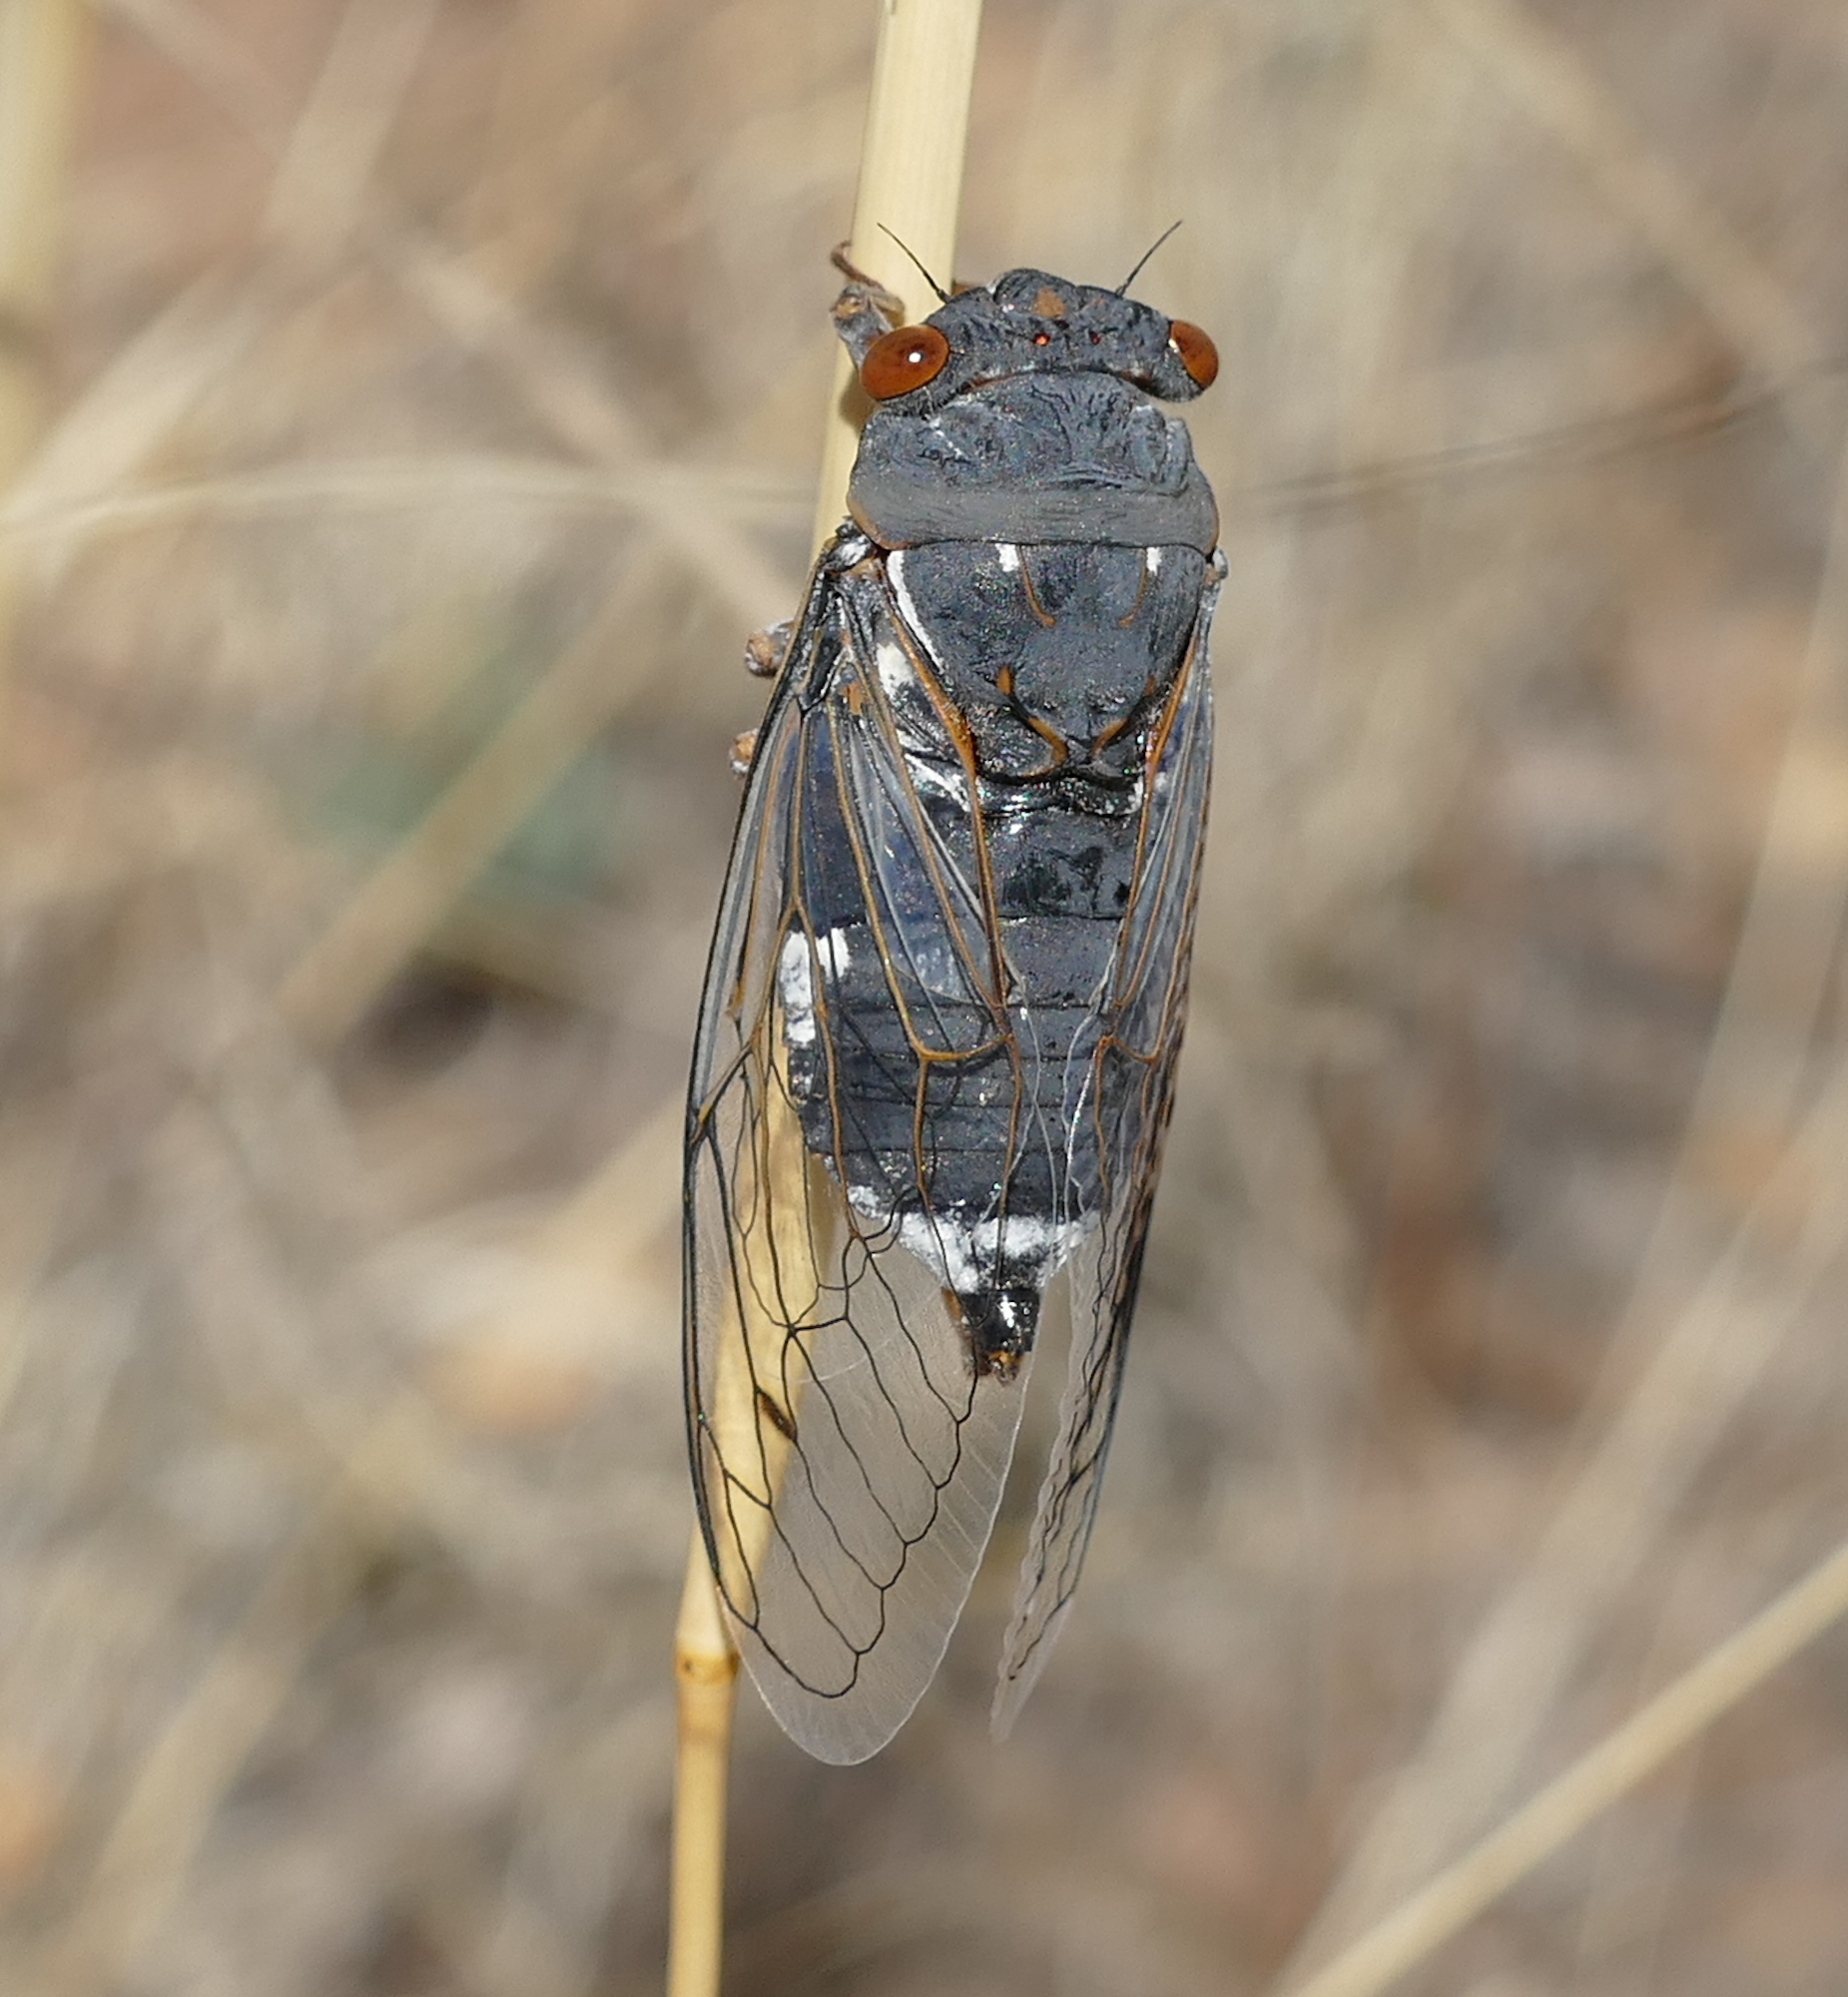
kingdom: Animalia
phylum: Arthropoda
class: Insecta
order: Hemiptera
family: Cicadidae
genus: Hadoa
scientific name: Hadoa chiricahua
